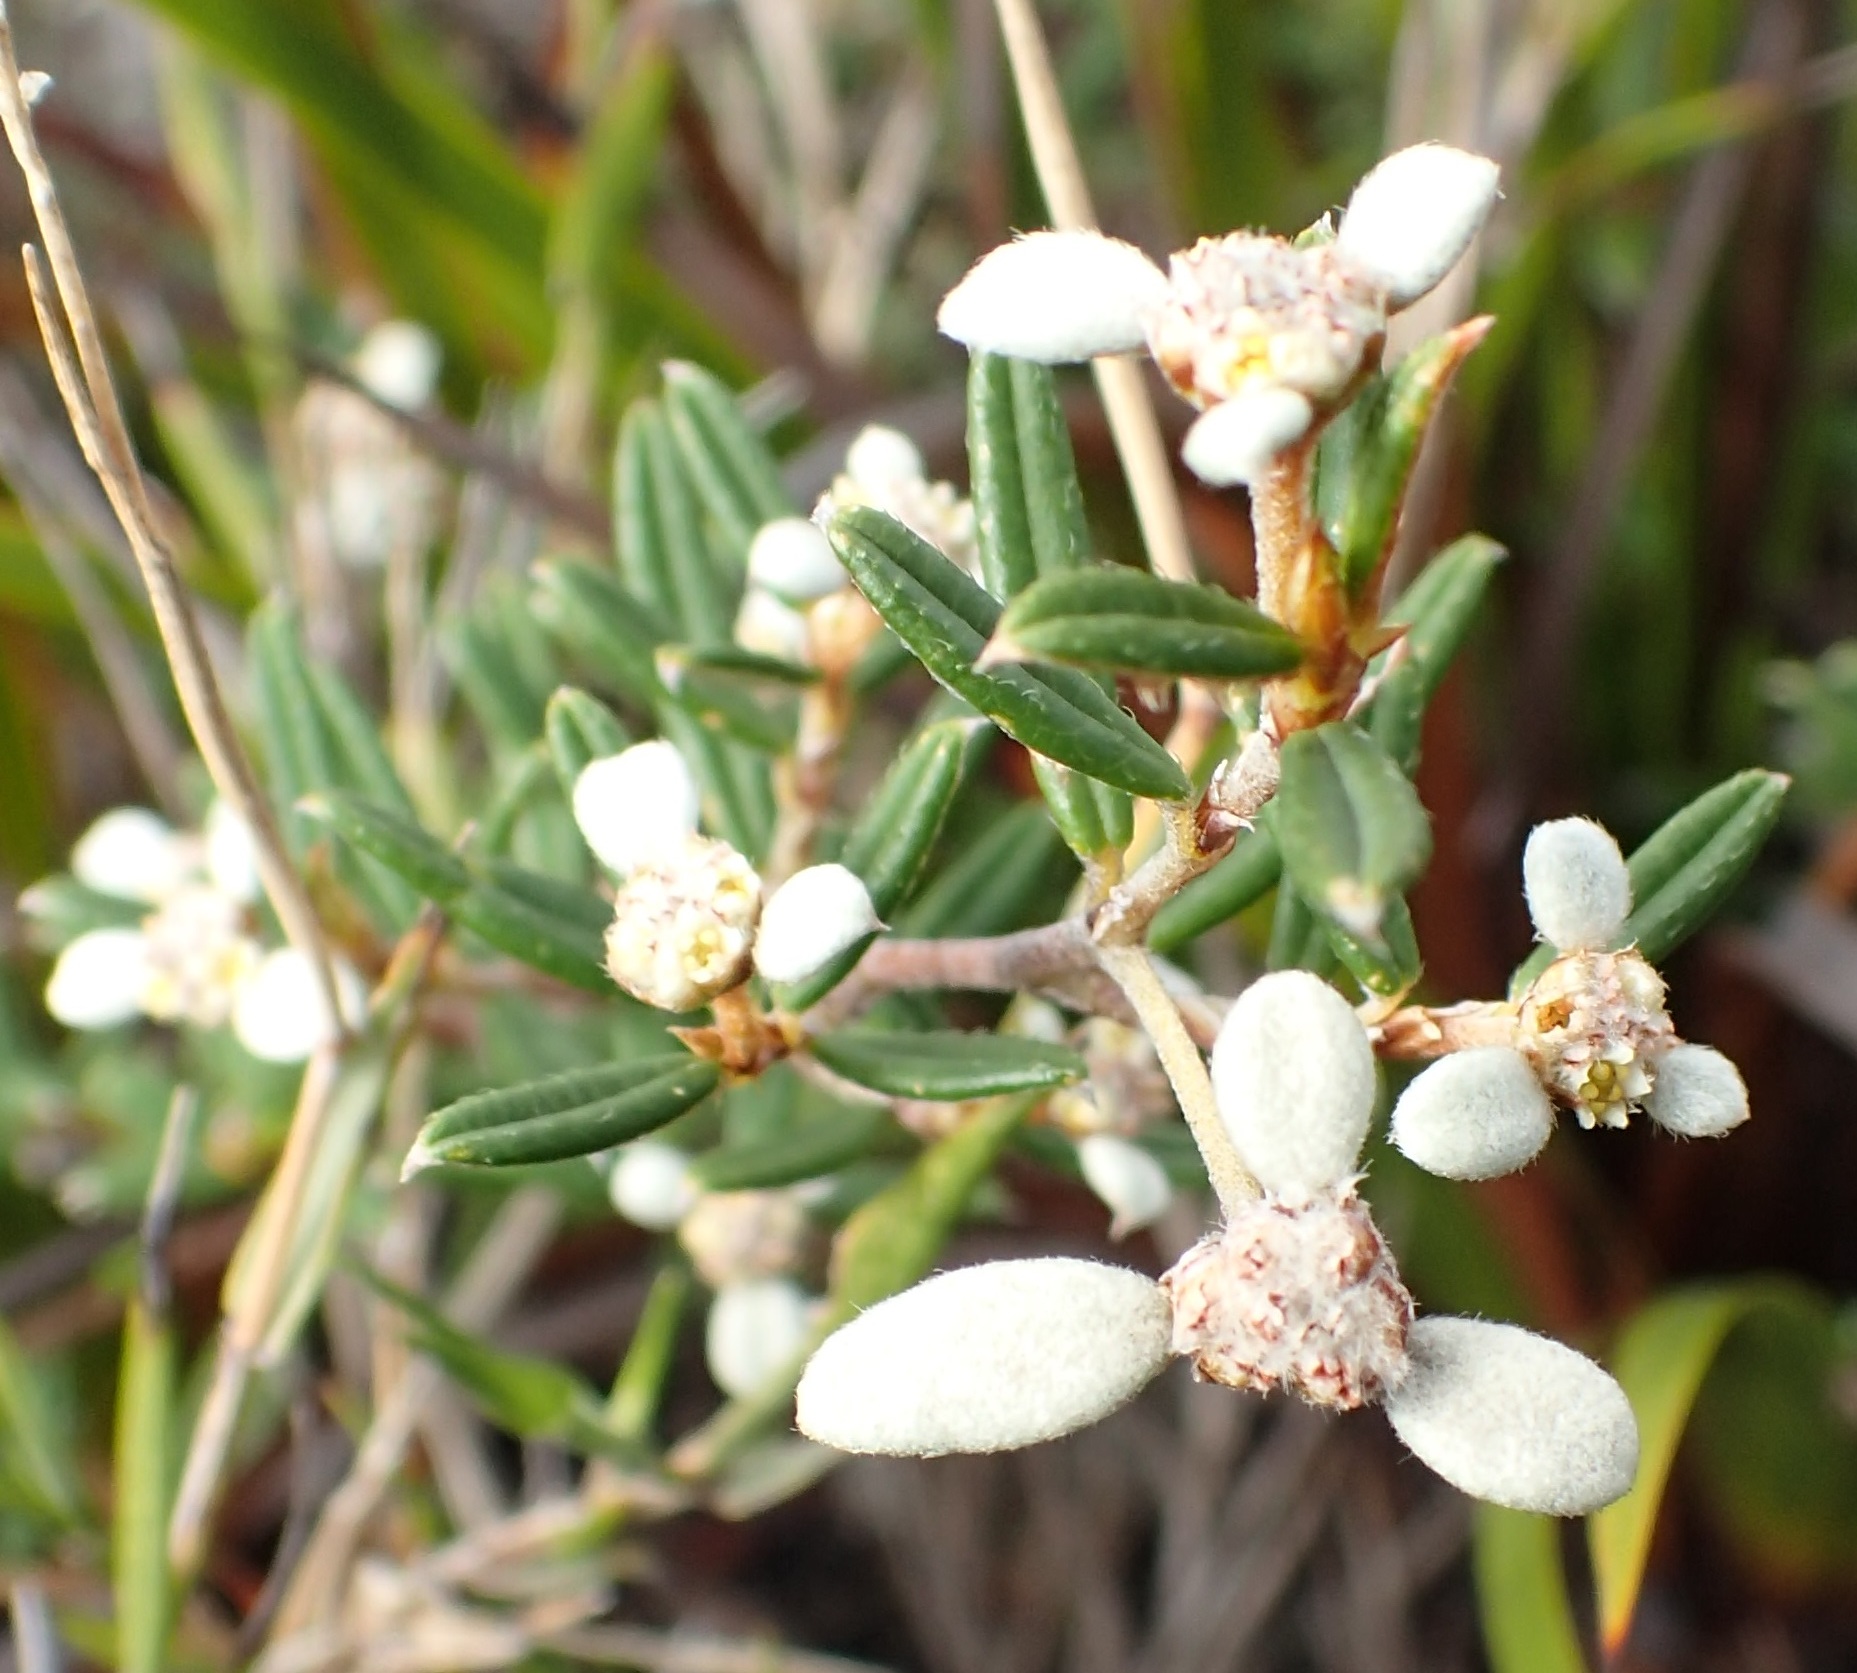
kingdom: Plantae
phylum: Tracheophyta
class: Magnoliopsida
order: Rosales
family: Rhamnaceae
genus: Spyridium
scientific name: Spyridium vexilliferum
